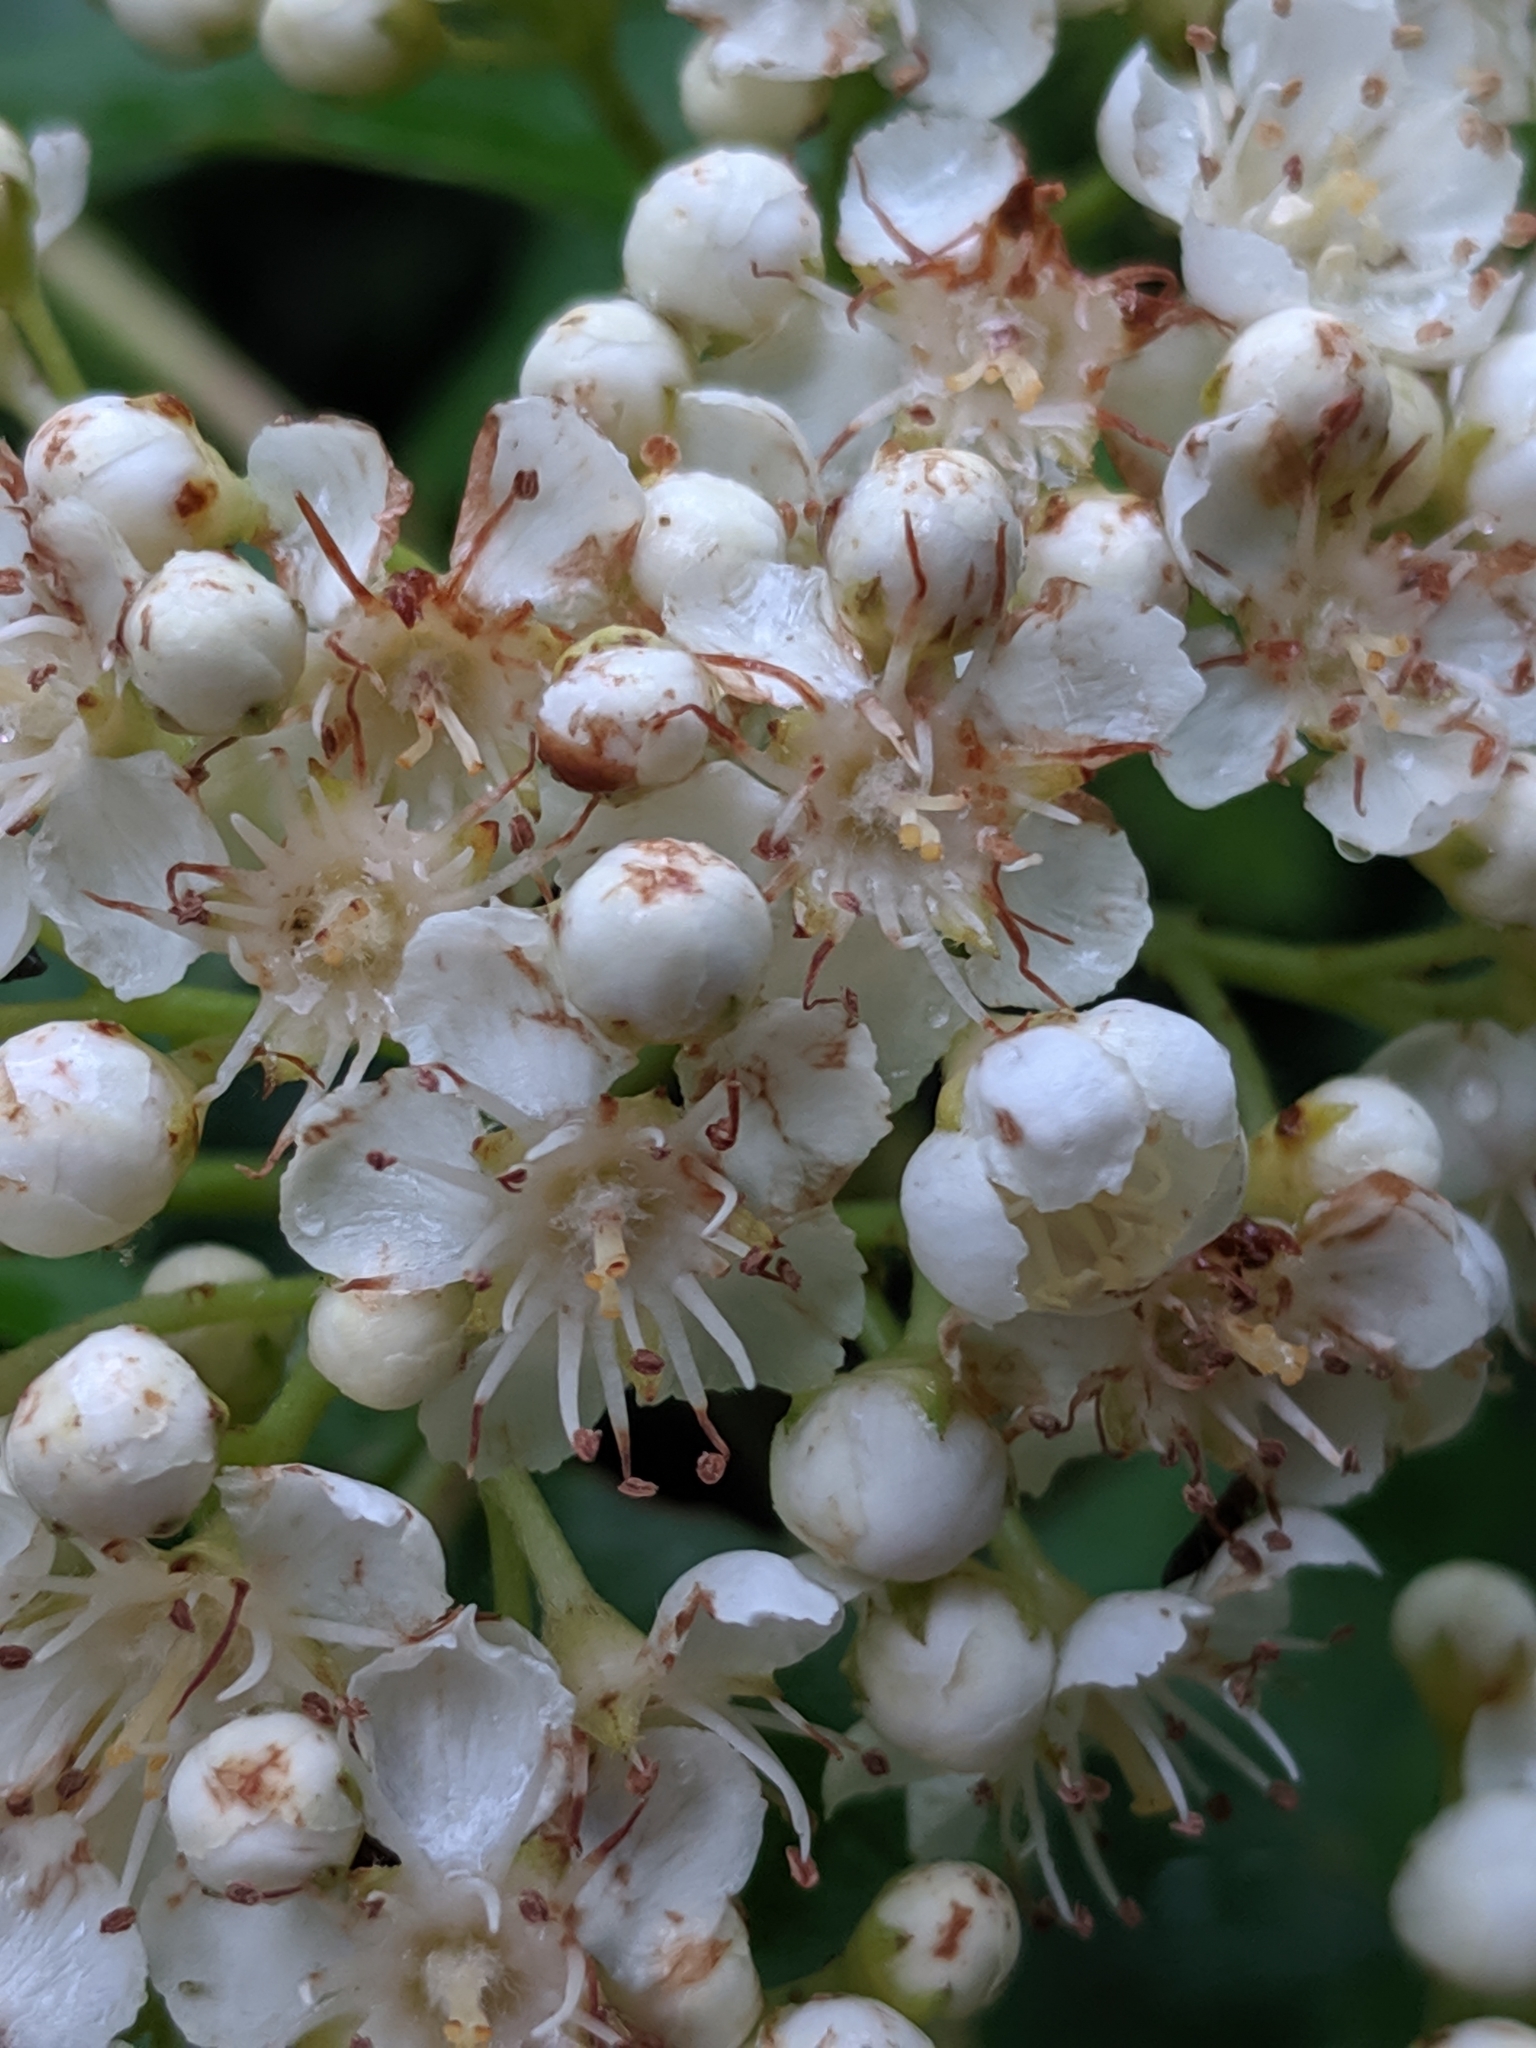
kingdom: Plantae
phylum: Tracheophyta
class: Magnoliopsida
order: Rosales
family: Rosaceae
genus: Sorbus
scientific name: Sorbus scopulina
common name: Greene's mountain-ash
